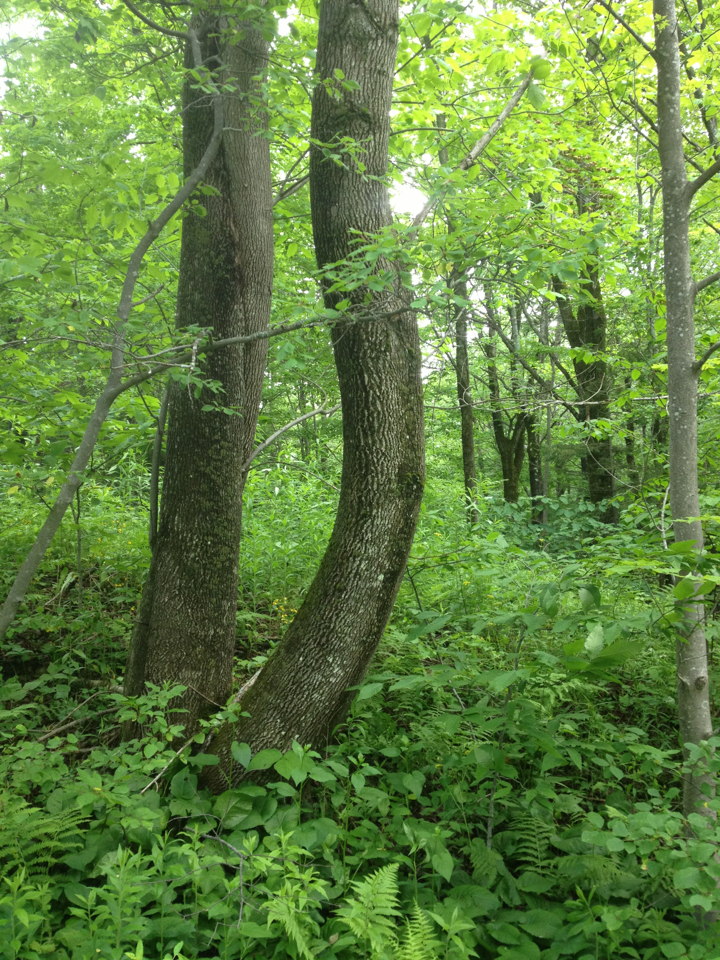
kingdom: Plantae
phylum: Tracheophyta
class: Magnoliopsida
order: Lamiales
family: Oleaceae
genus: Fraxinus
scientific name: Fraxinus americana
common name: White ash
